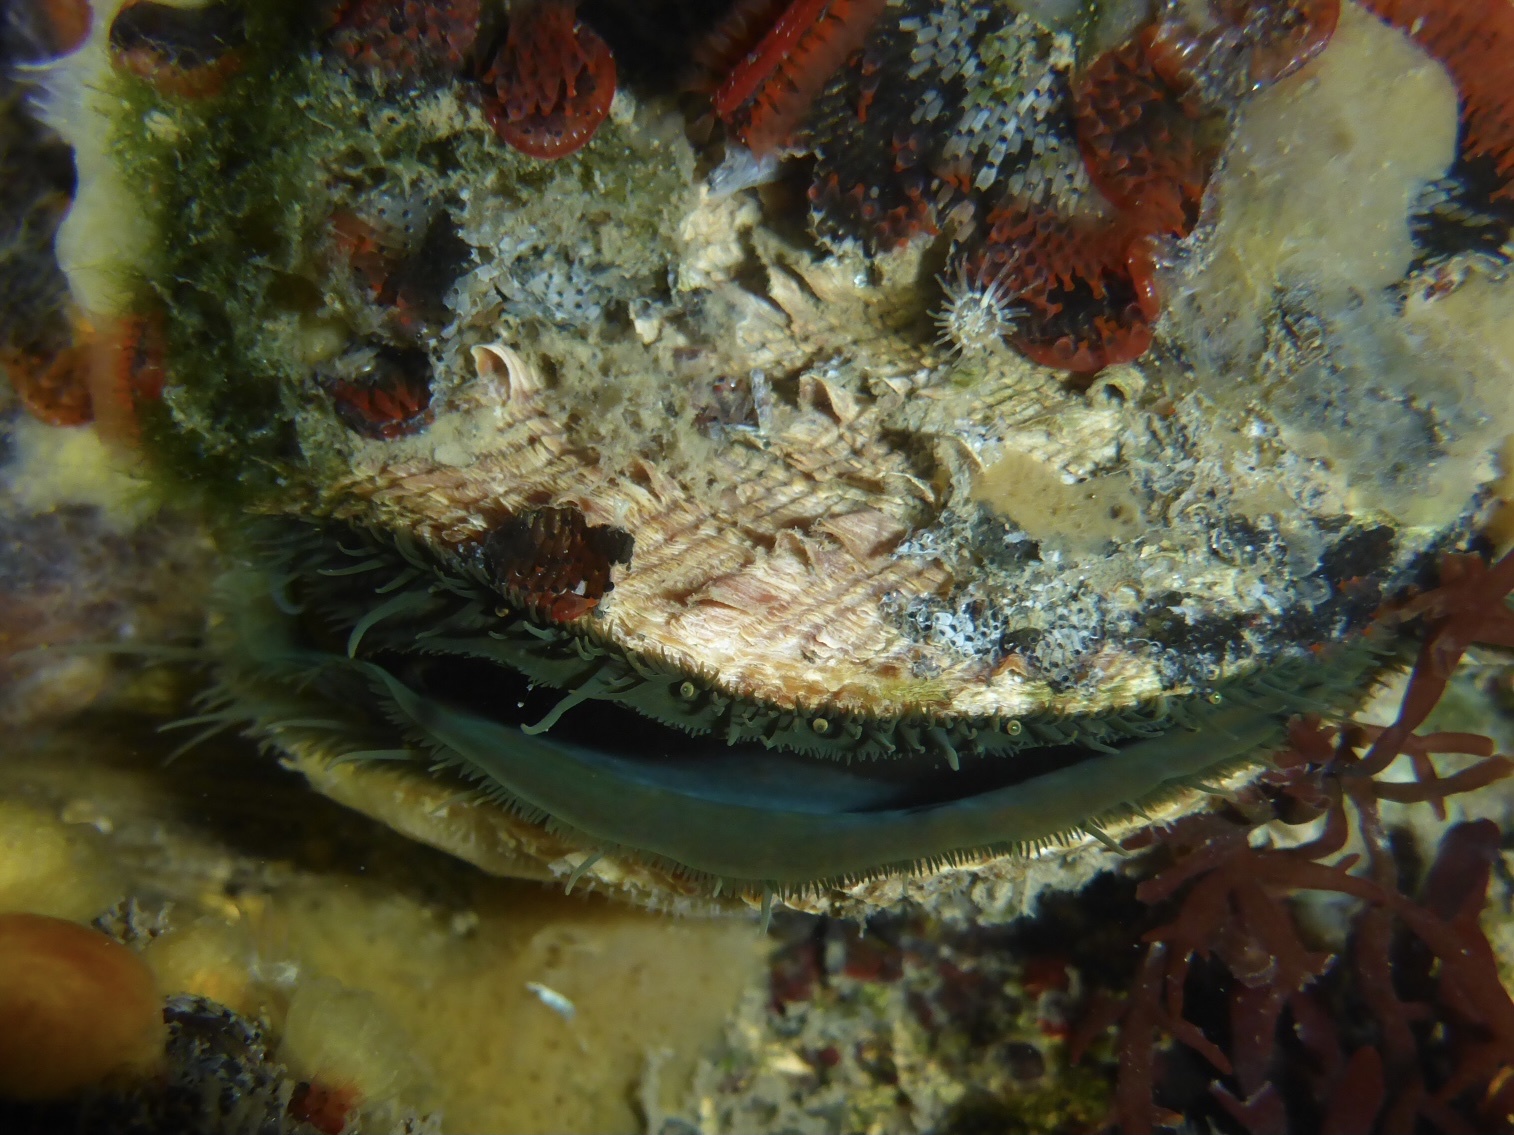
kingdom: Animalia
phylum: Mollusca
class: Bivalvia
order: Pectinida
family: Pectinidae
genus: Crassadoma
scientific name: Crassadoma gigantea
